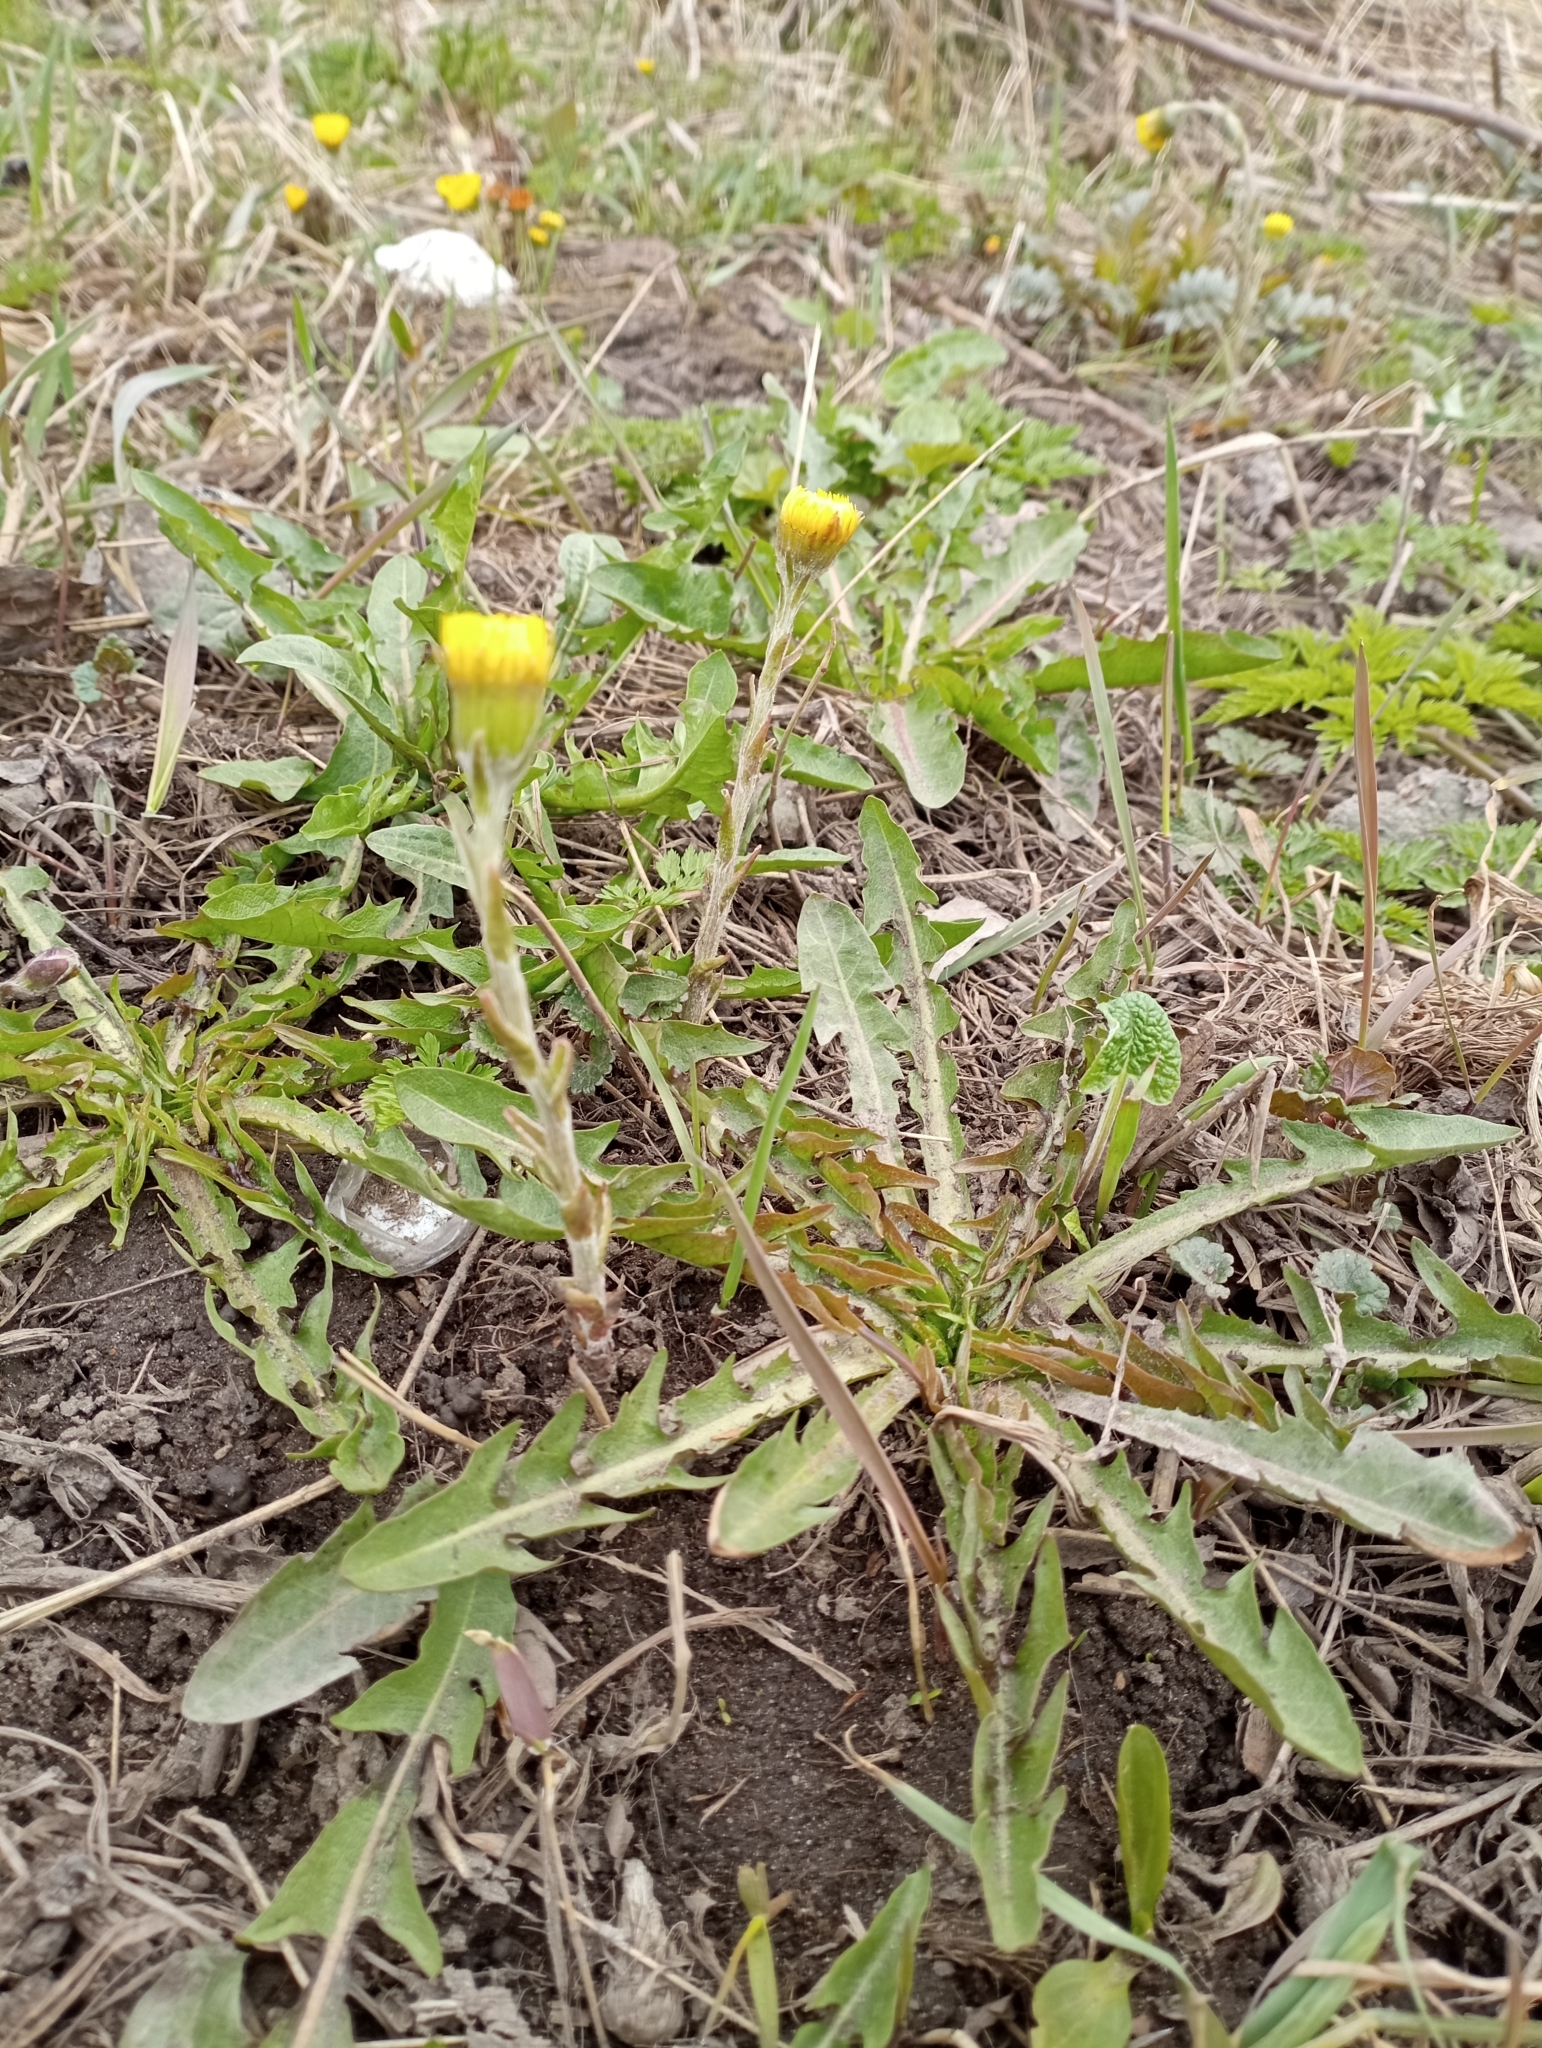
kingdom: Plantae
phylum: Tracheophyta
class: Magnoliopsida
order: Asterales
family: Asteraceae
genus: Tussilago
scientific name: Tussilago farfara
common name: Coltsfoot
